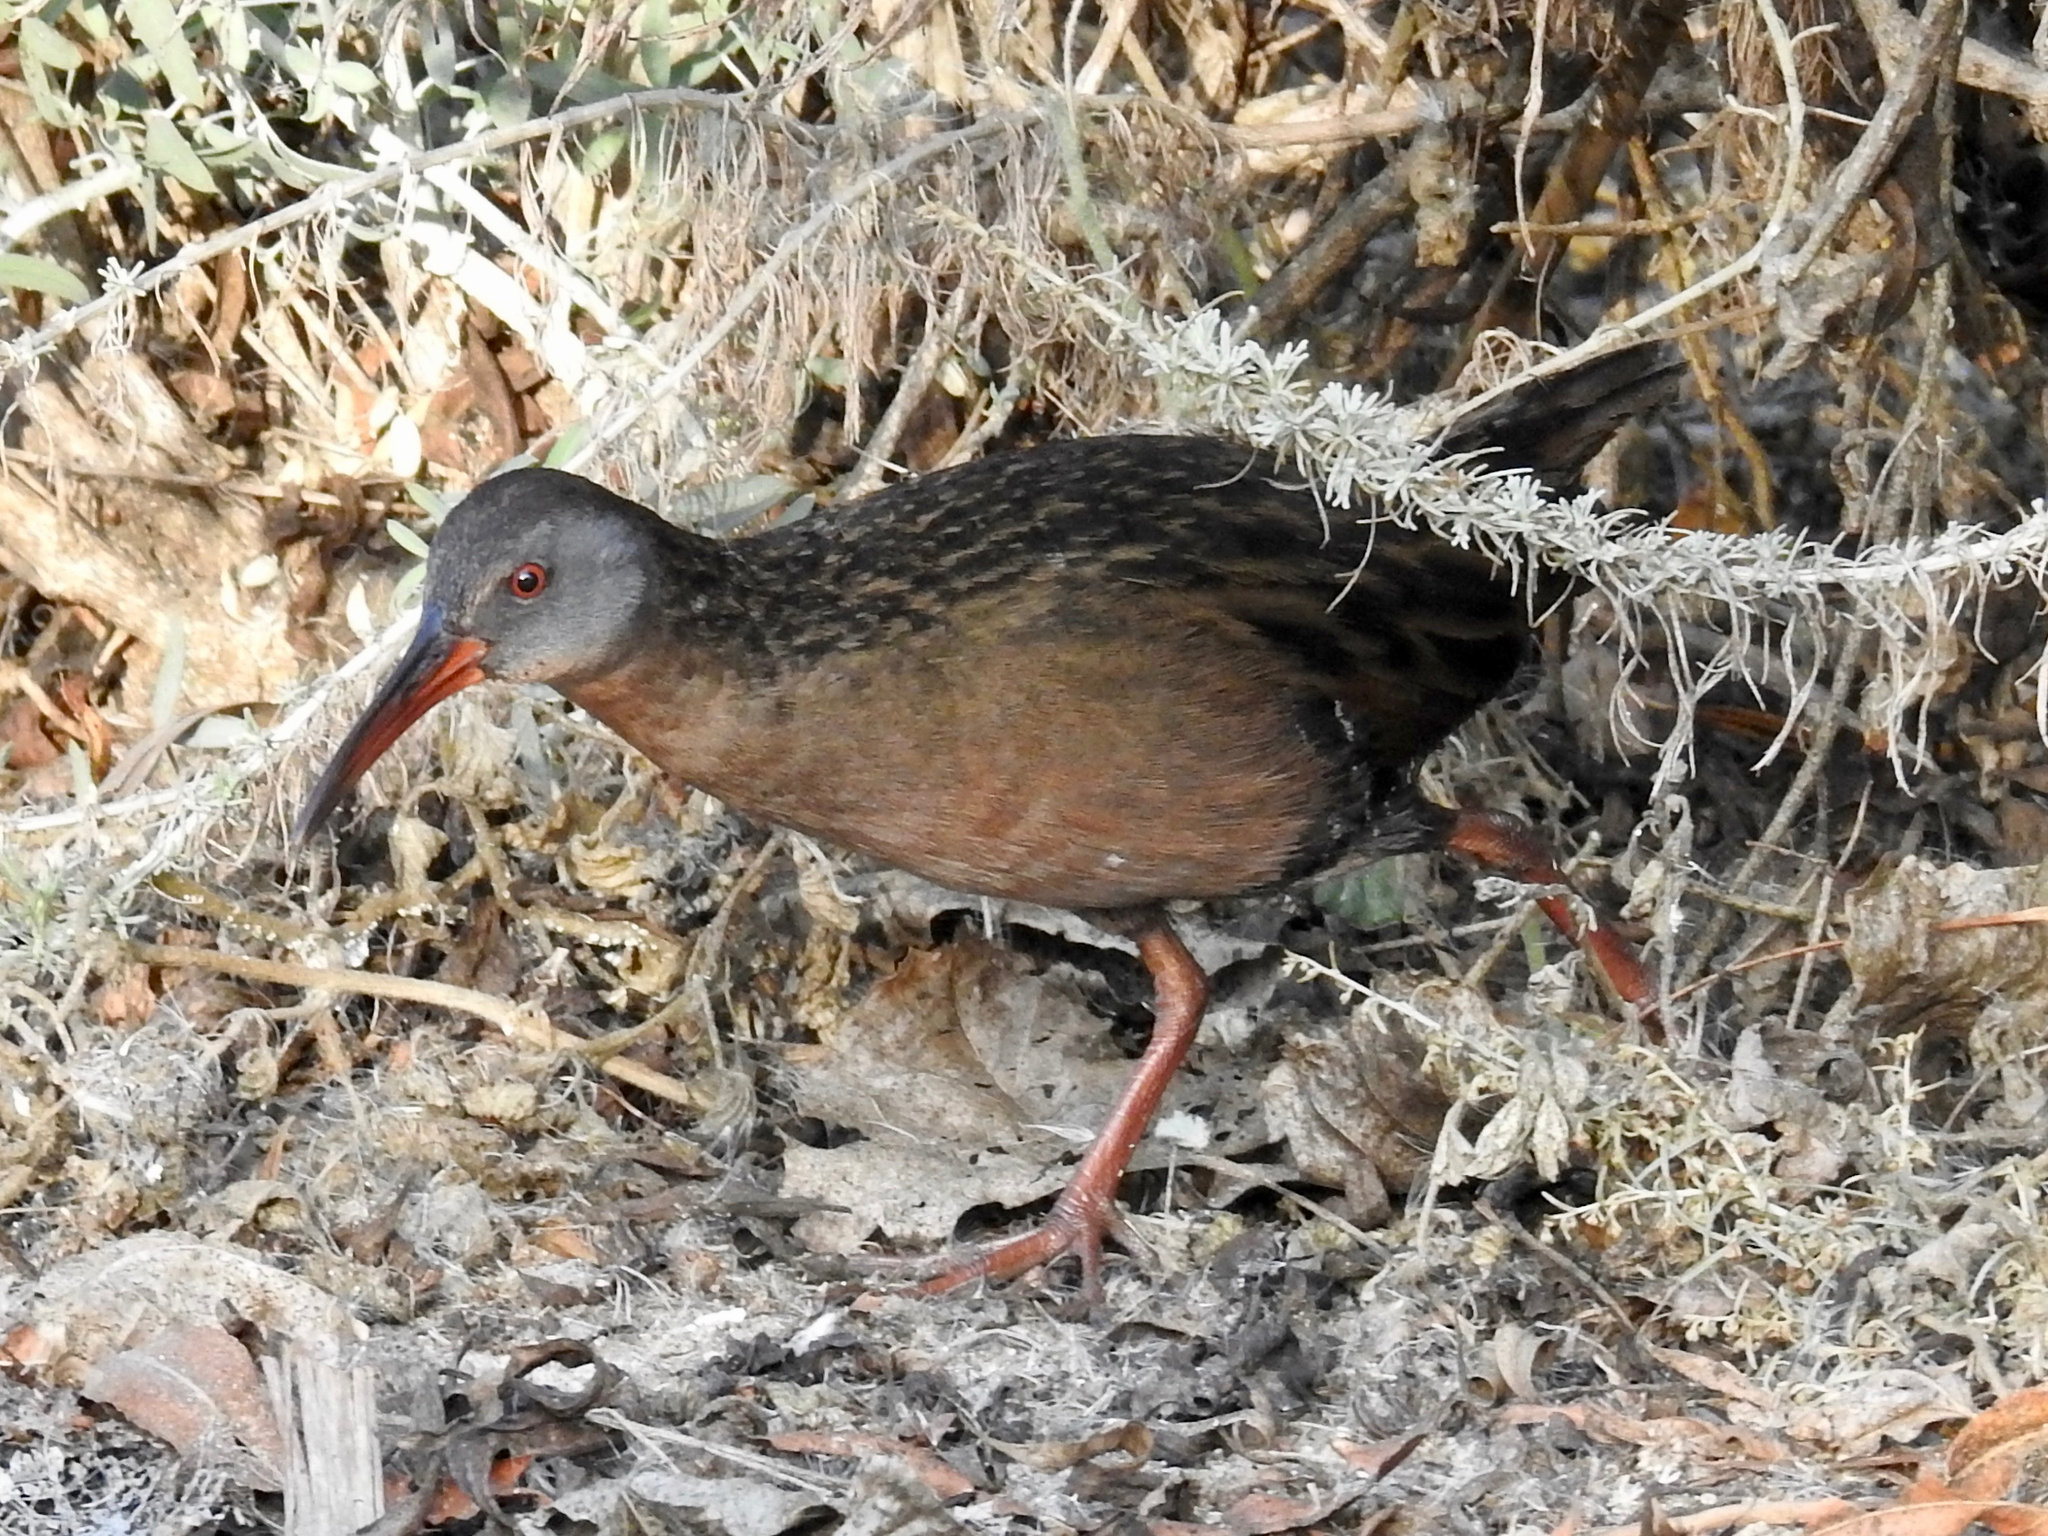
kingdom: Animalia
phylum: Chordata
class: Aves
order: Gruiformes
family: Rallidae
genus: Rallus
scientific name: Rallus limicola
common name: Virginia rail
